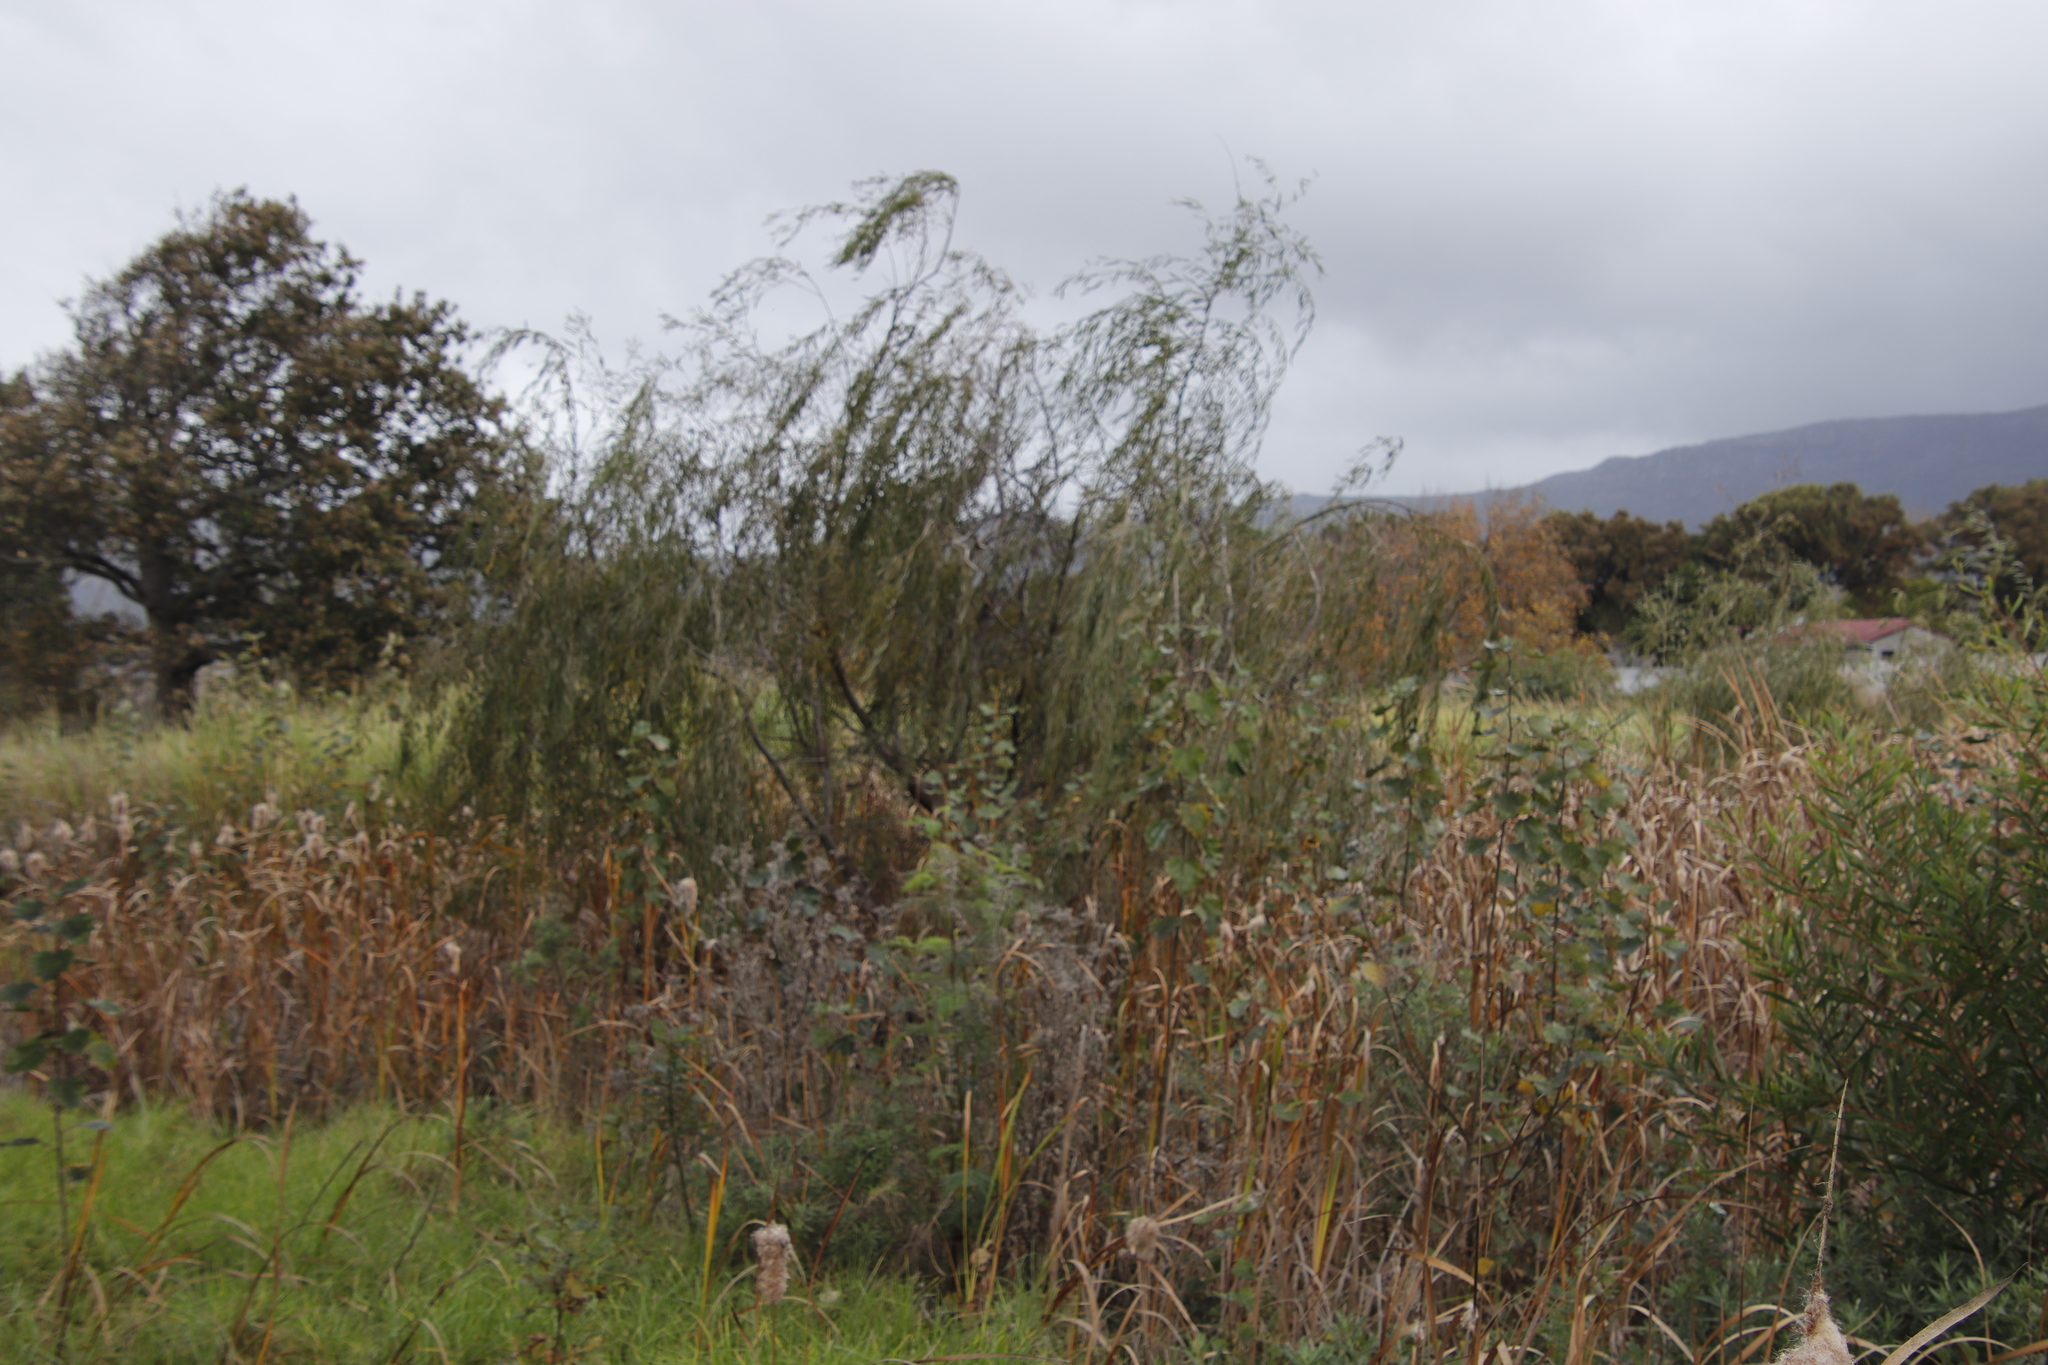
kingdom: Plantae
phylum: Tracheophyta
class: Magnoliopsida
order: Malpighiales
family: Salicaceae
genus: Salix
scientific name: Salix babylonica
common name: Weeping willow
